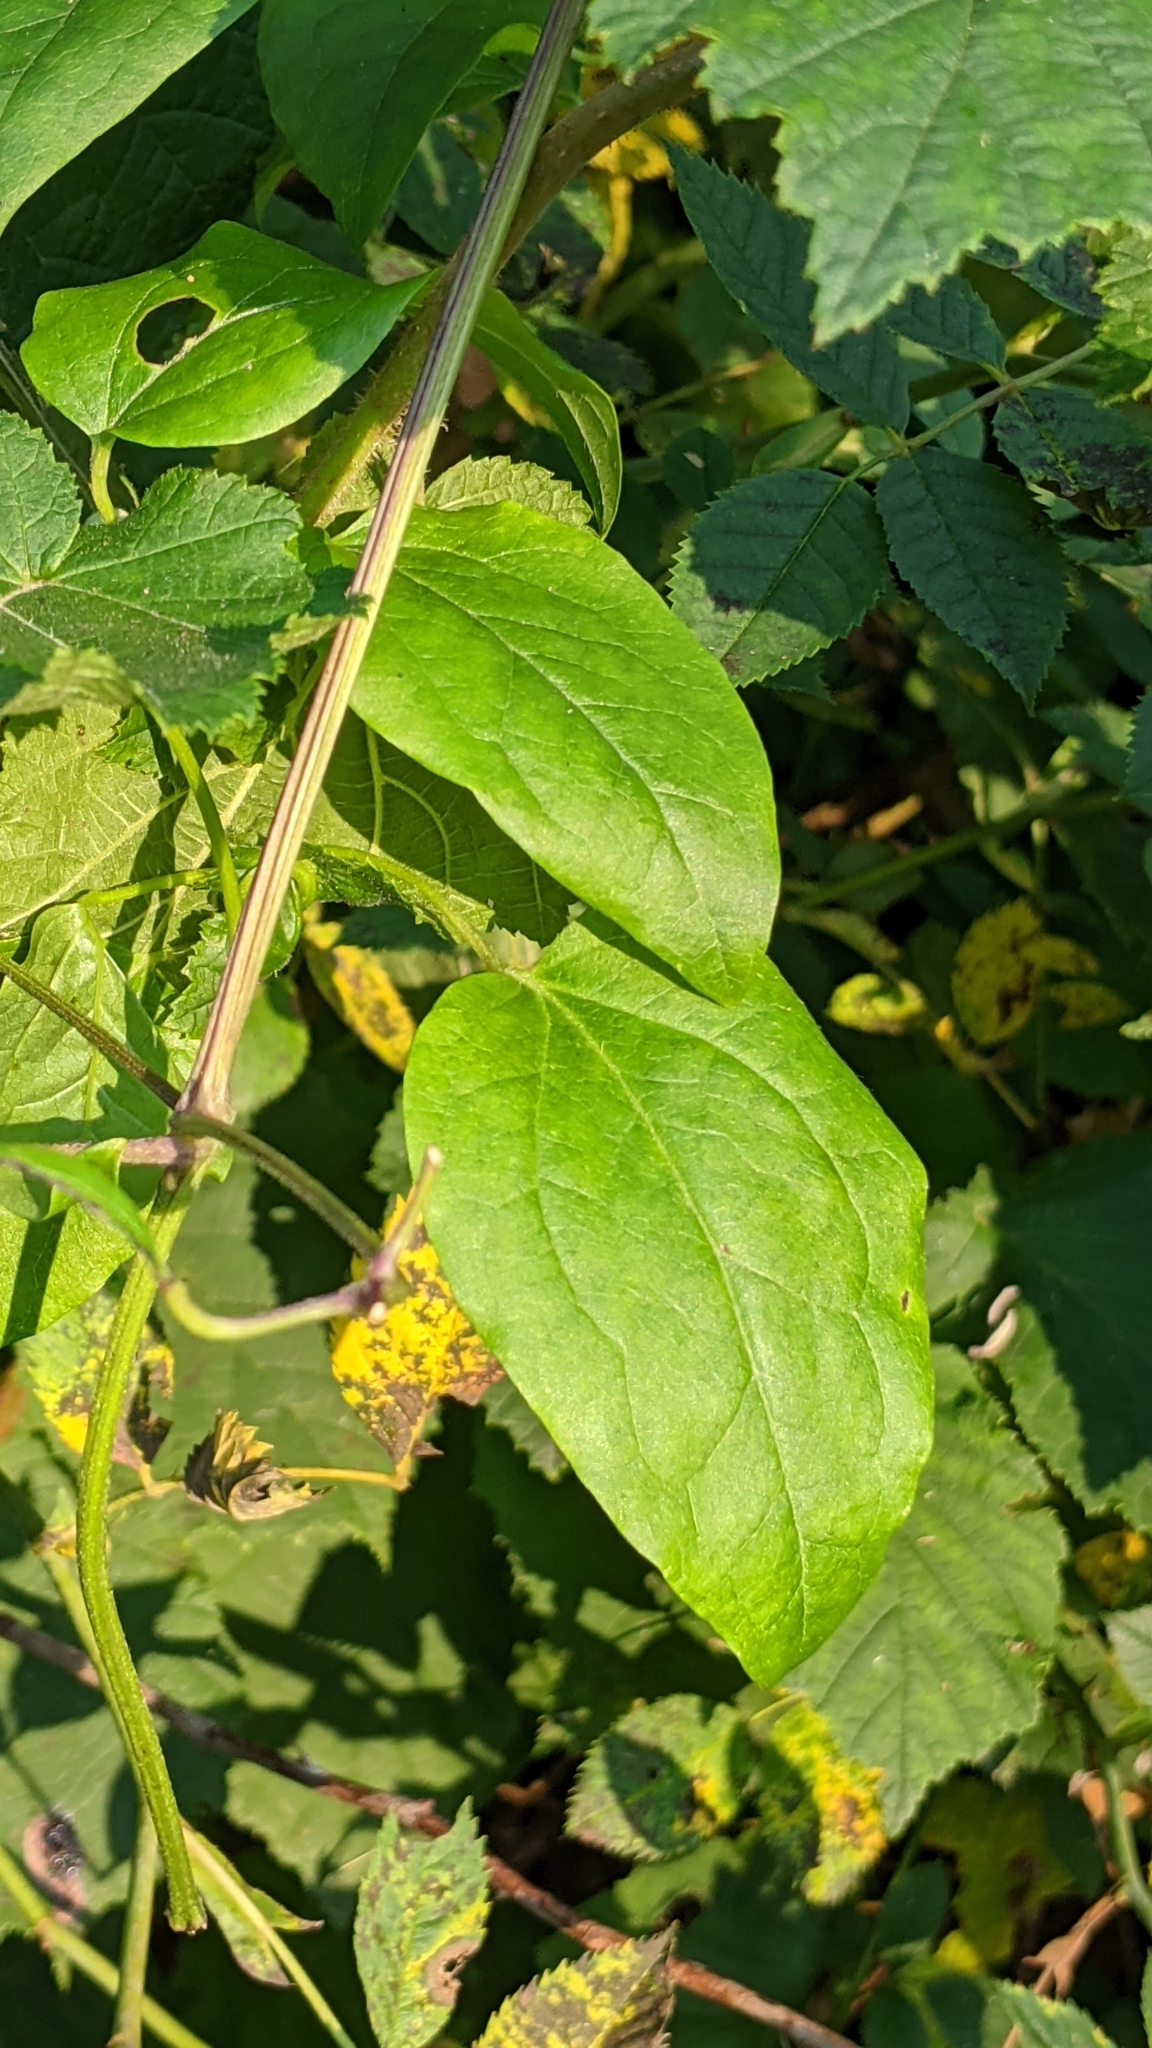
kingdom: Plantae
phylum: Tracheophyta
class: Magnoliopsida
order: Ranunculales
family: Ranunculaceae
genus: Clematis
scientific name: Clematis vitalba
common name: Evergreen clematis
